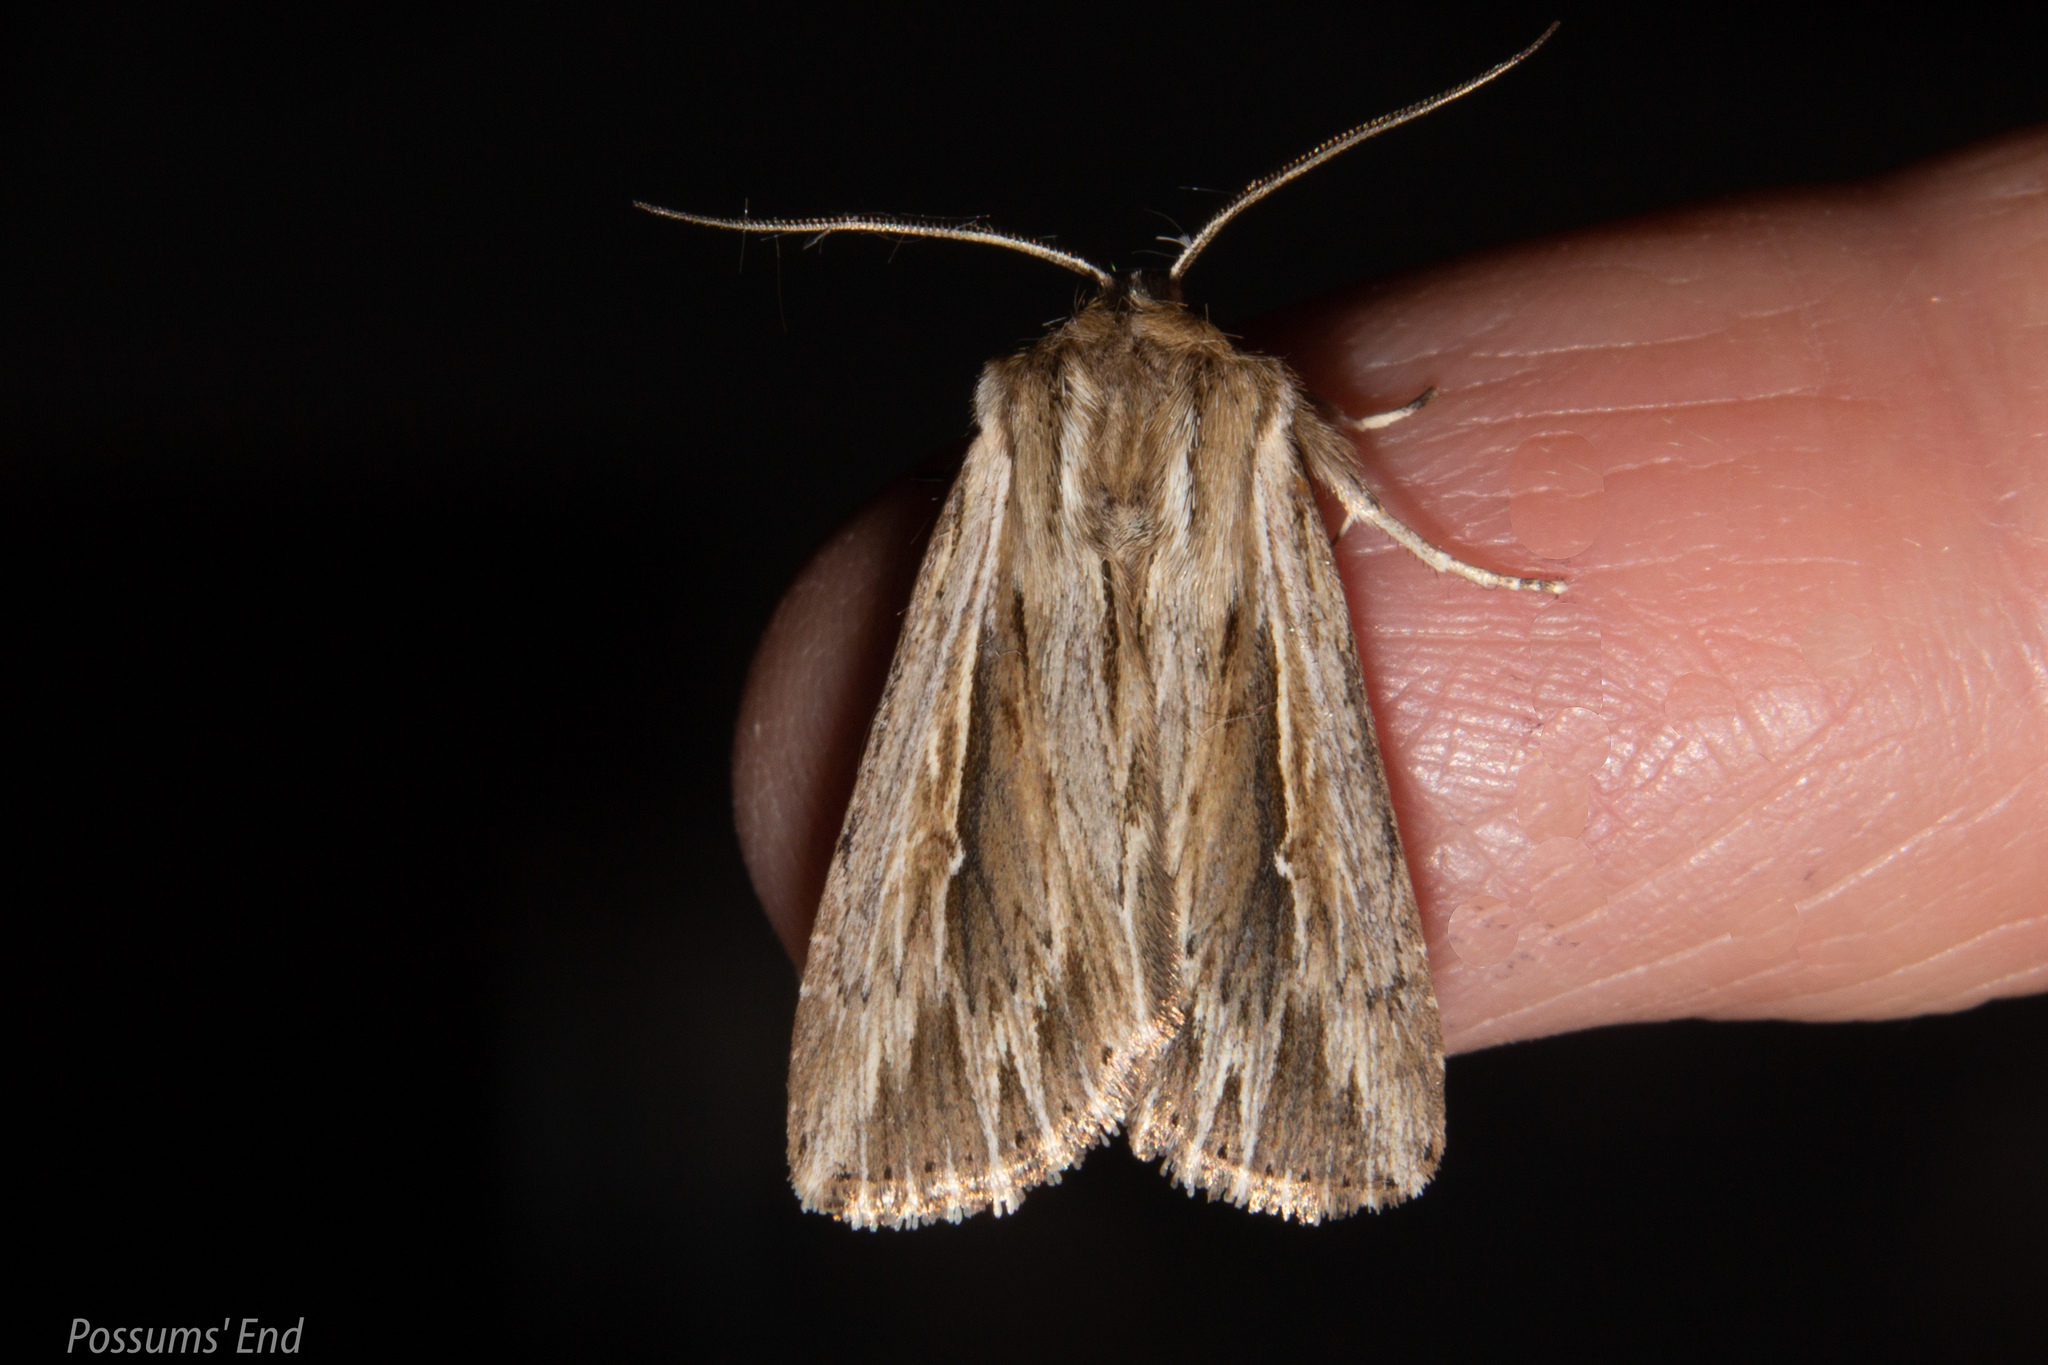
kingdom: Animalia
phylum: Arthropoda
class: Insecta
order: Lepidoptera
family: Noctuidae
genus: Persectania
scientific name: Persectania aversa
